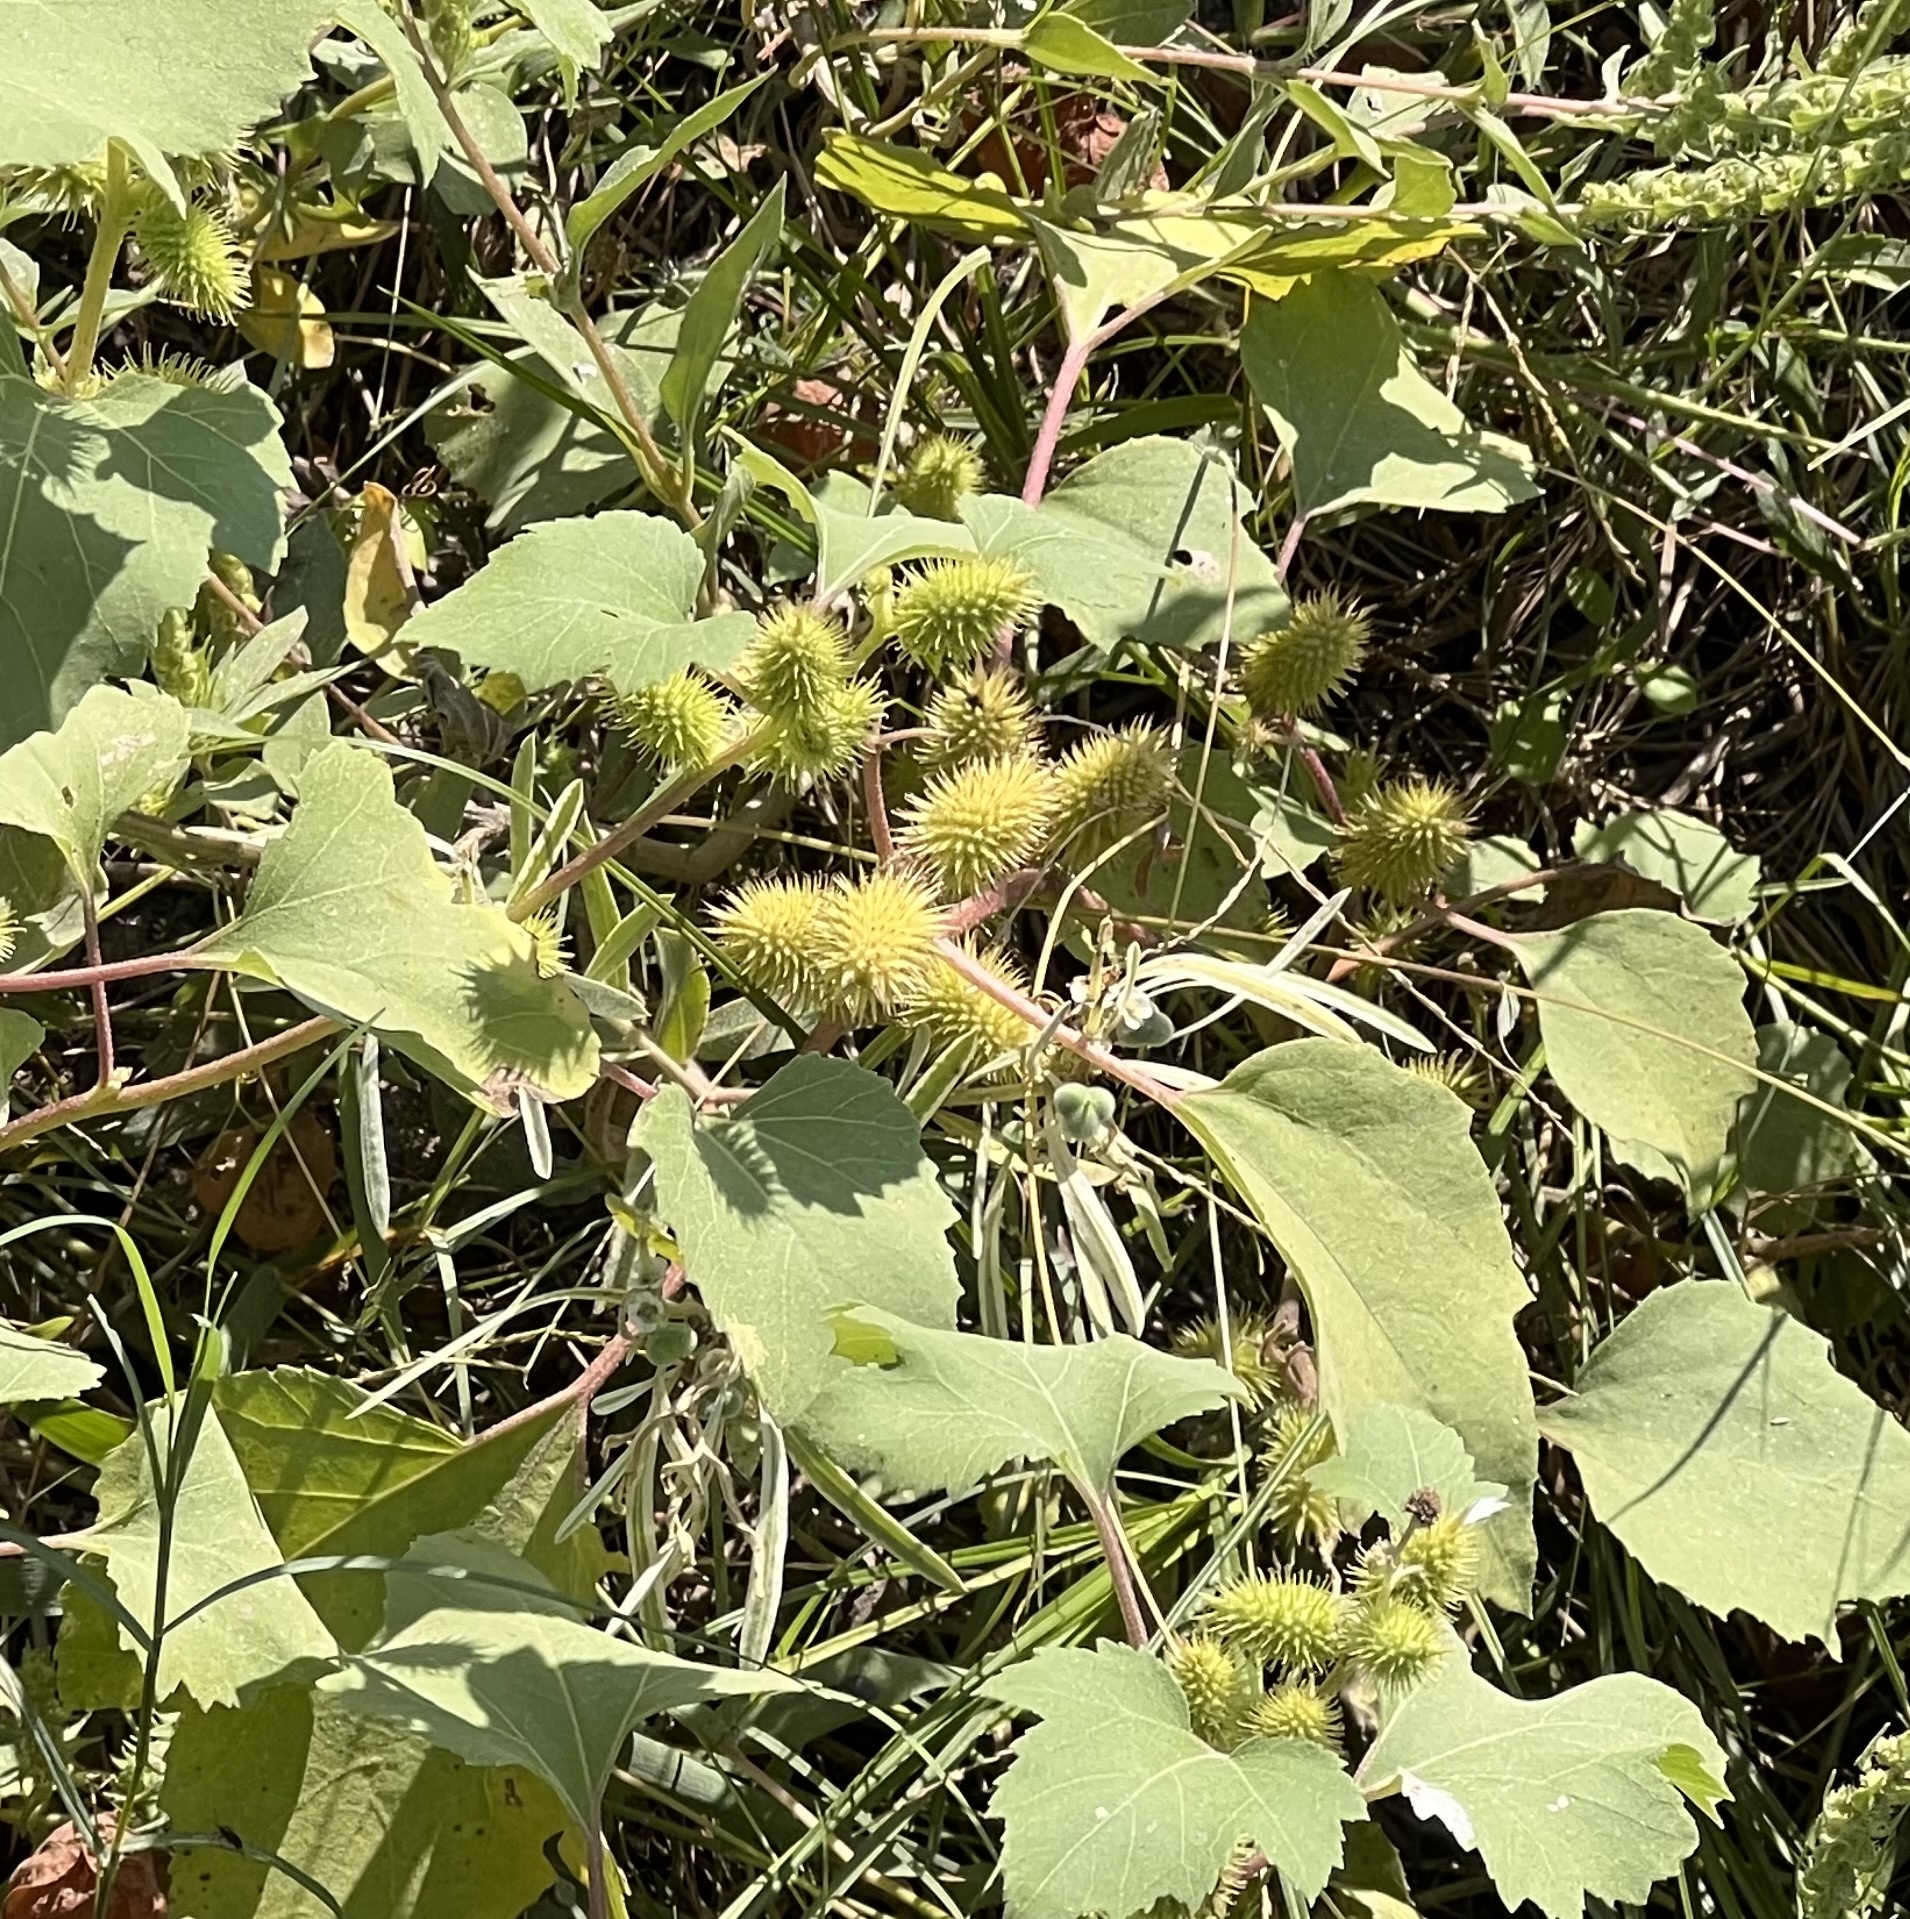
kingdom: Plantae
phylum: Tracheophyta
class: Magnoliopsida
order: Asterales
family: Asteraceae
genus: Xanthium
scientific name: Xanthium strumarium
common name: Rough cocklebur
